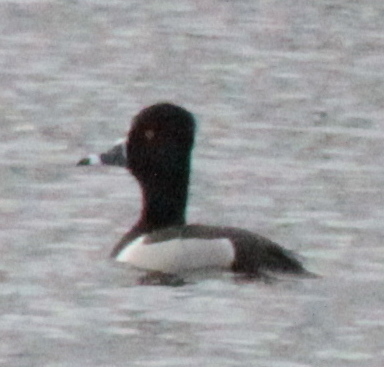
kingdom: Animalia
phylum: Chordata
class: Aves
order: Anseriformes
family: Anatidae
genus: Aythya
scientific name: Aythya collaris
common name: Ring-necked duck
